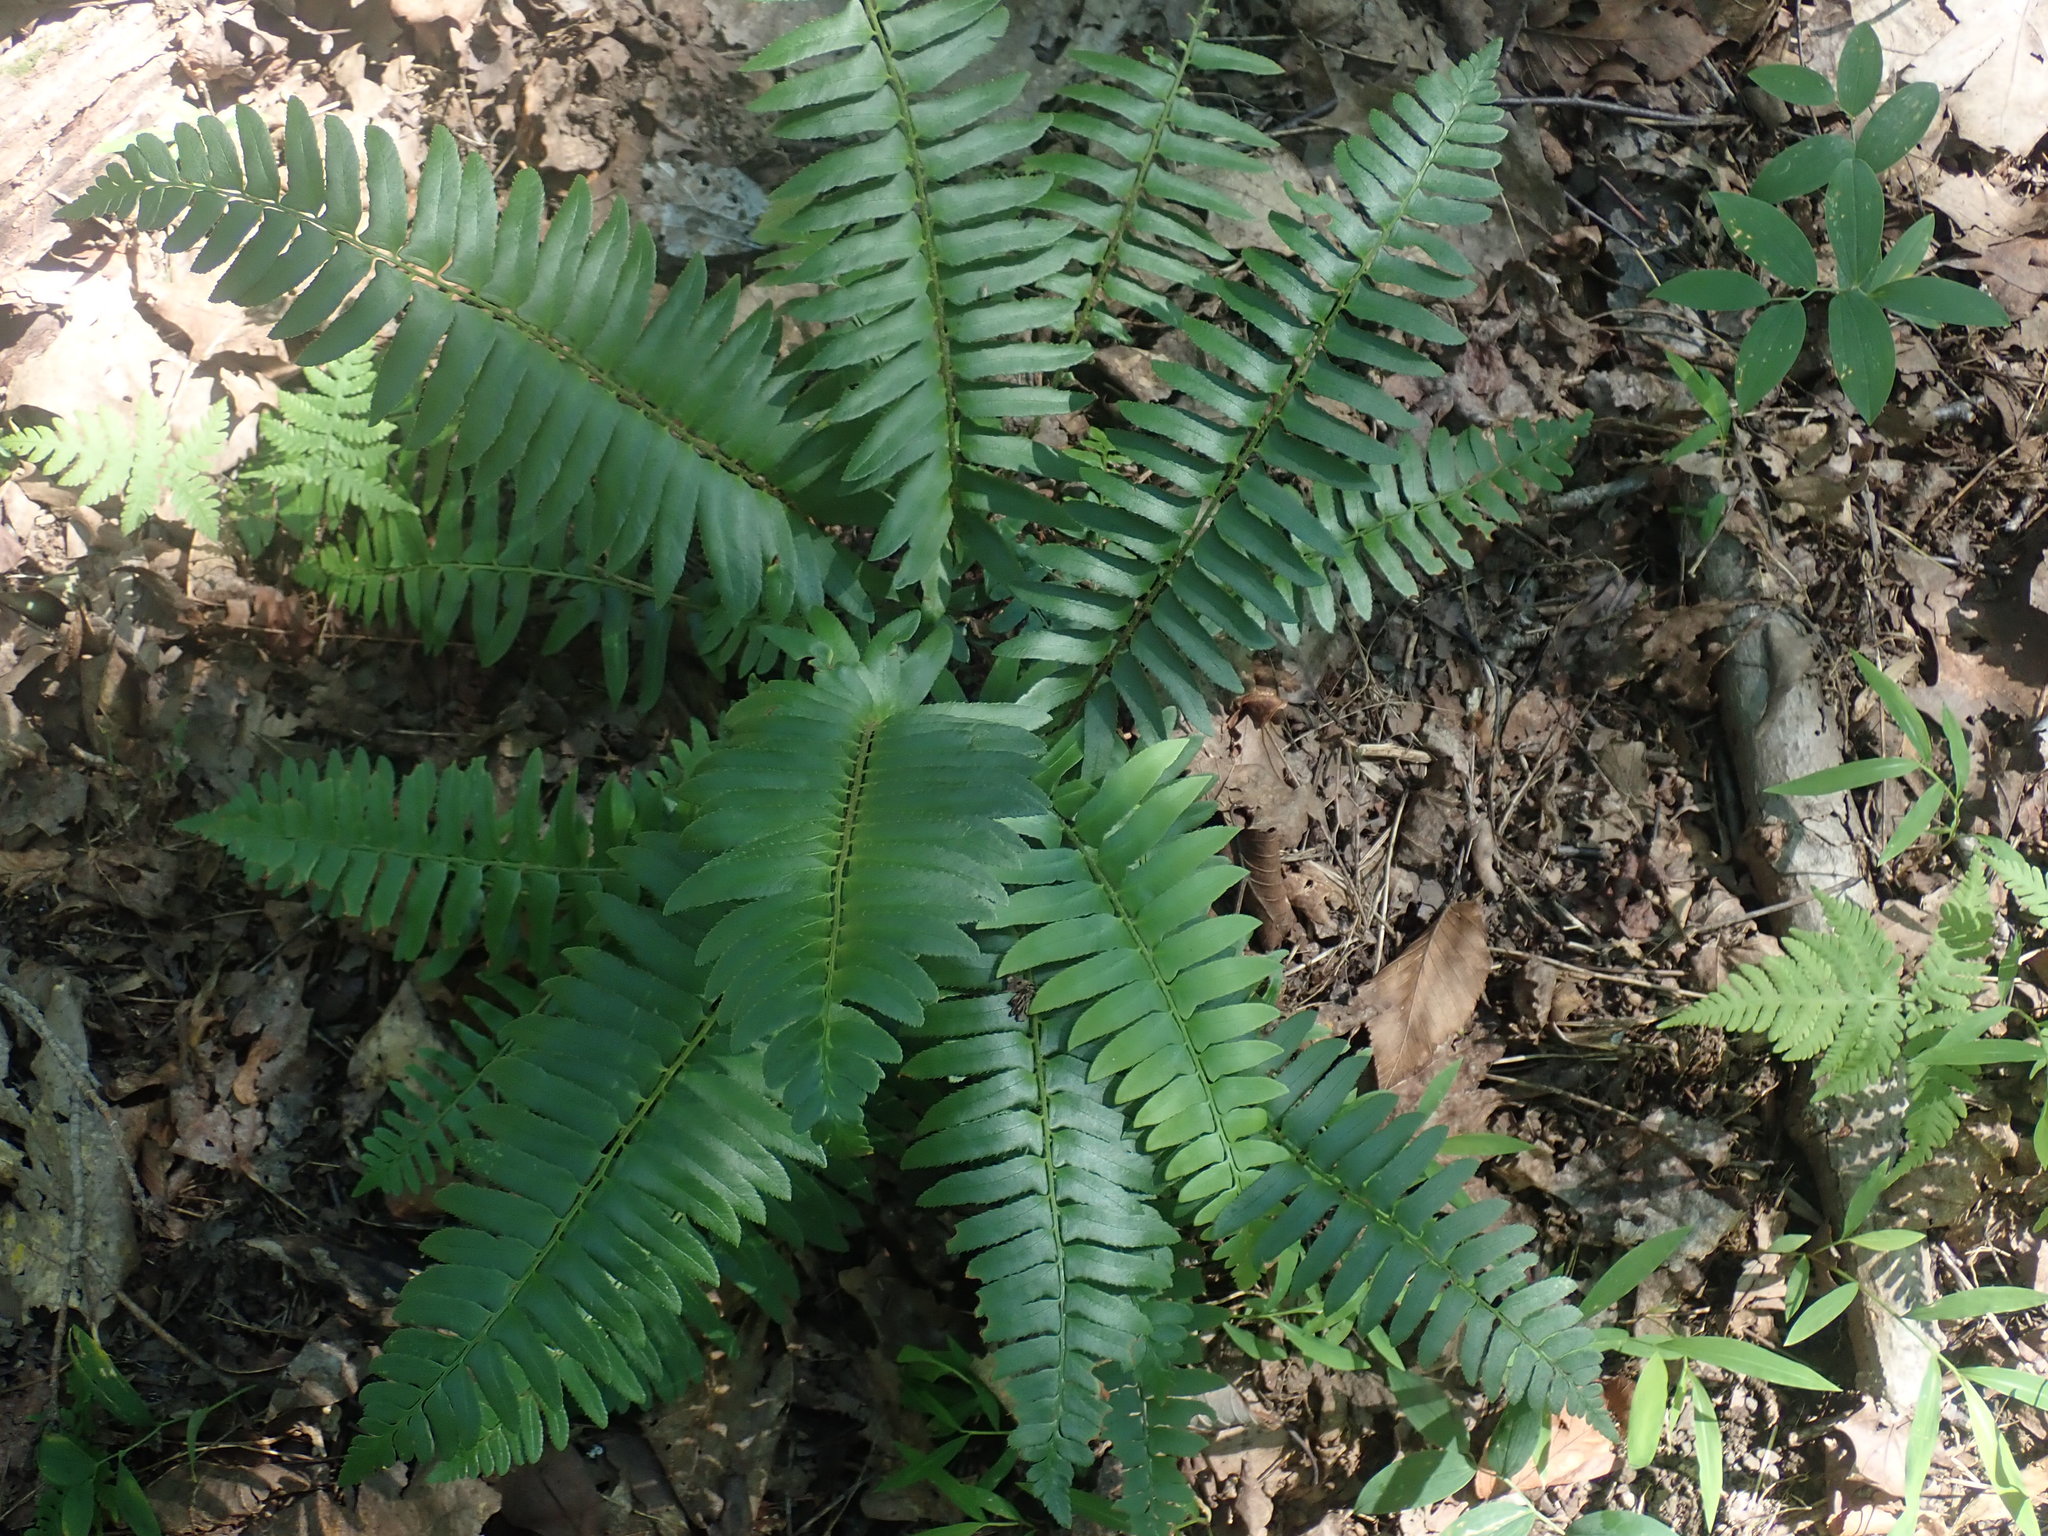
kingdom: Plantae
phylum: Tracheophyta
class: Polypodiopsida
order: Polypodiales
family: Dryopteridaceae
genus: Polystichum
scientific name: Polystichum acrostichoides
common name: Christmas fern
